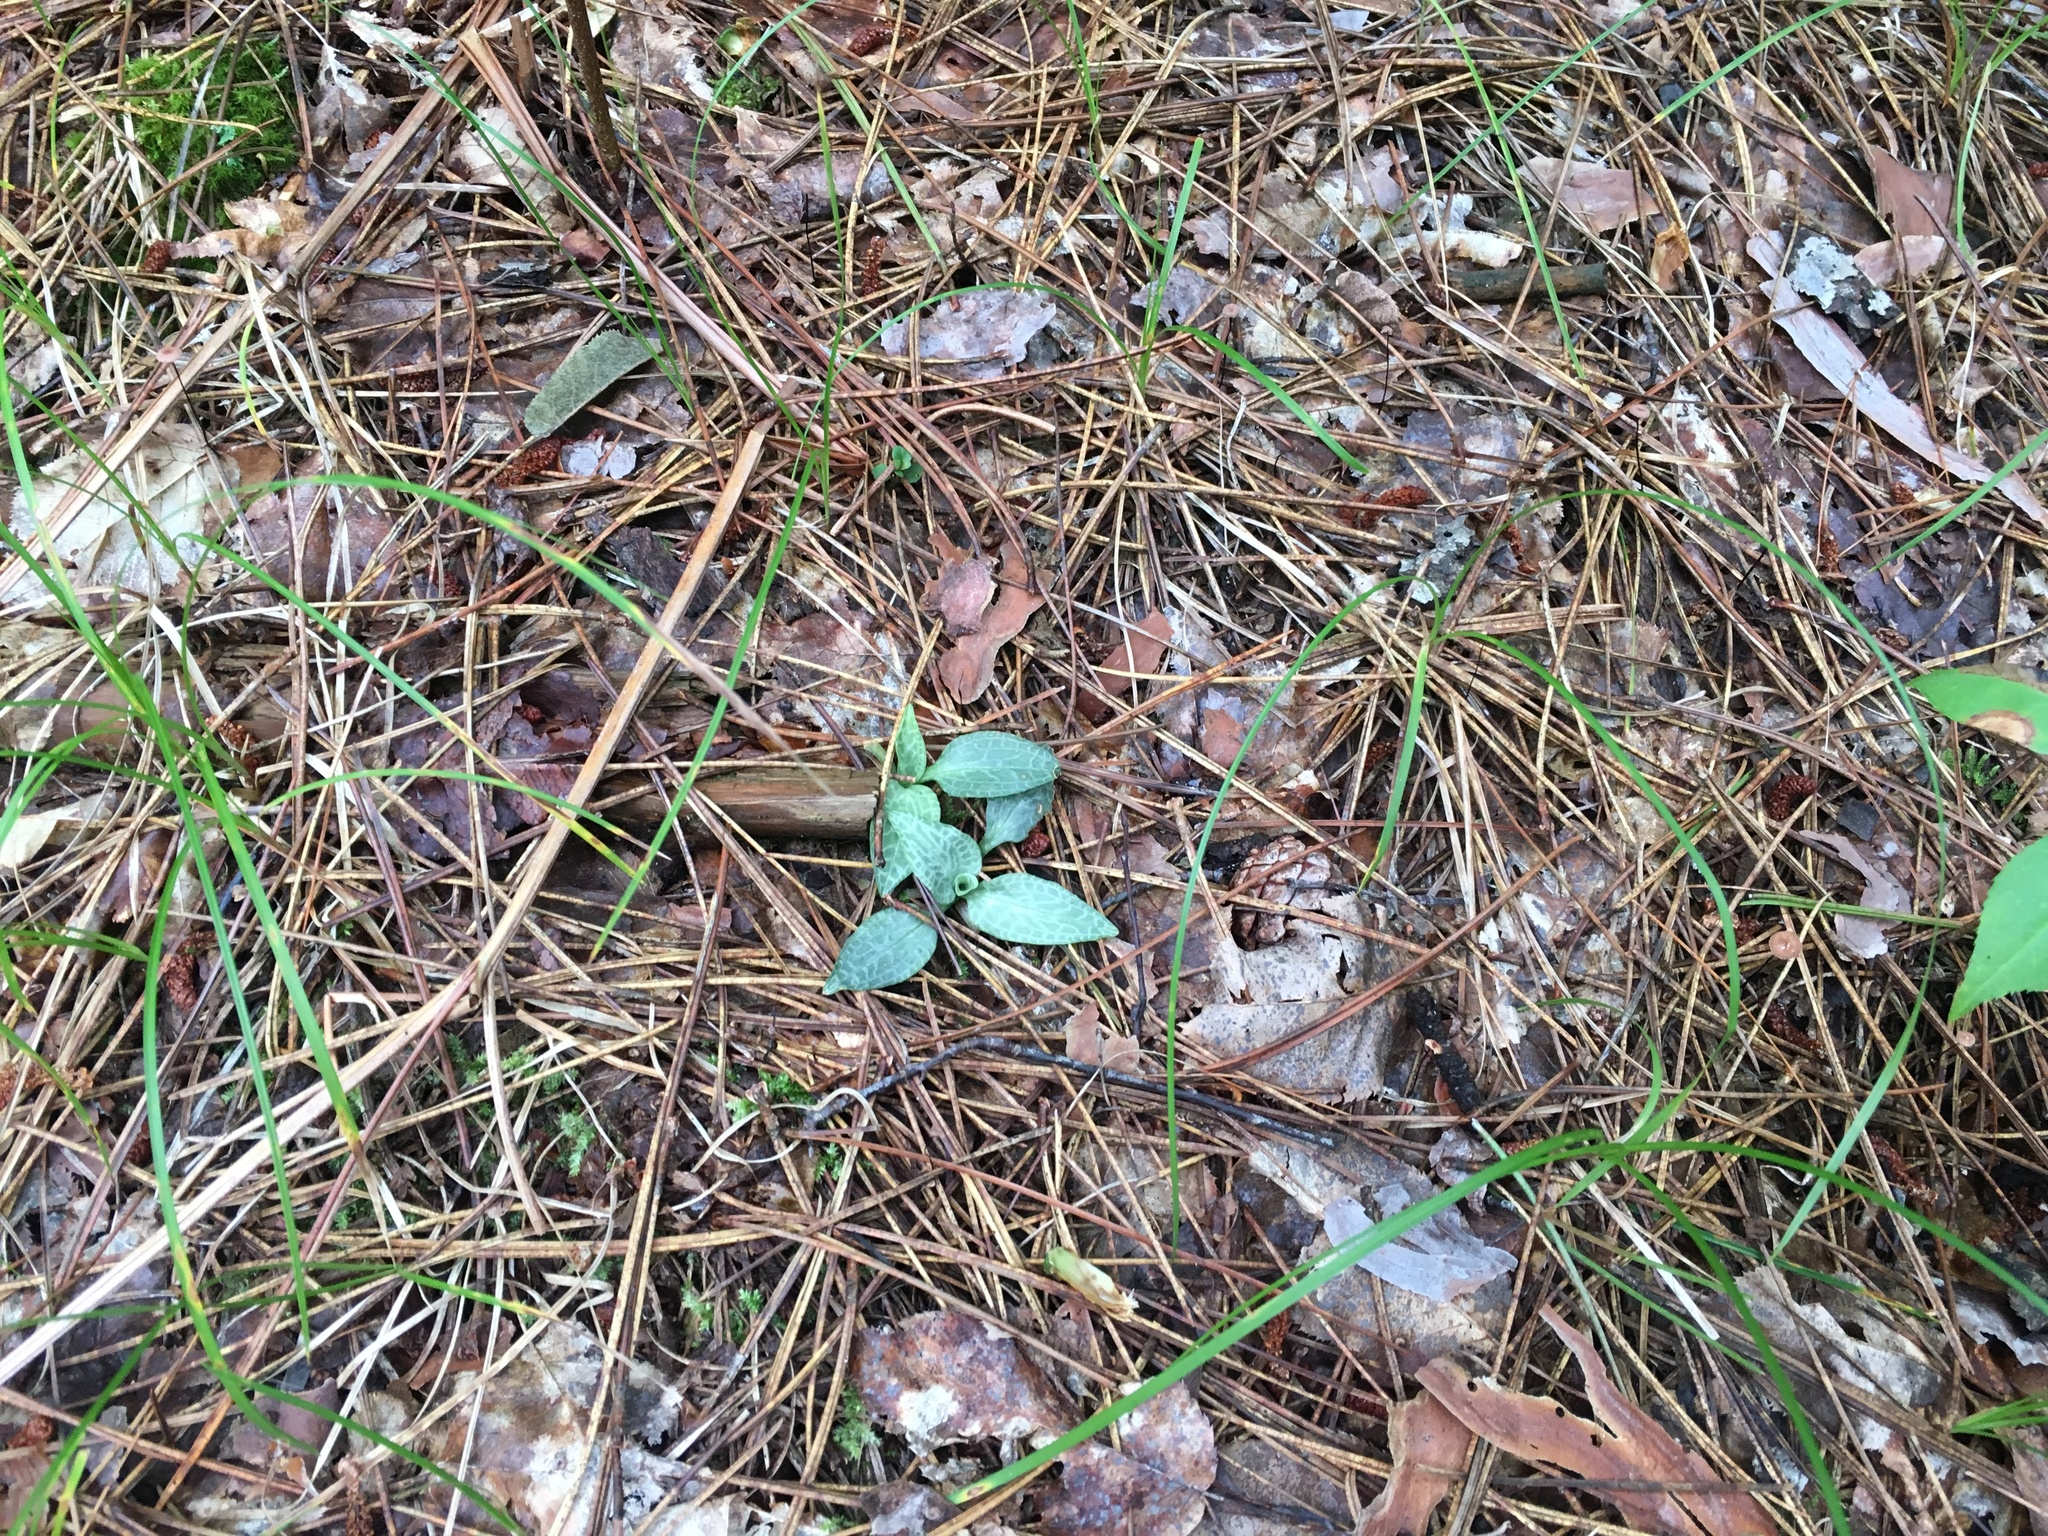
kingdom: Plantae
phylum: Tracheophyta
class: Liliopsida
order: Asparagales
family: Orchidaceae
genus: Goodyera
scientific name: Goodyera tesselata
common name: Checkered rattlesnake-plantain
